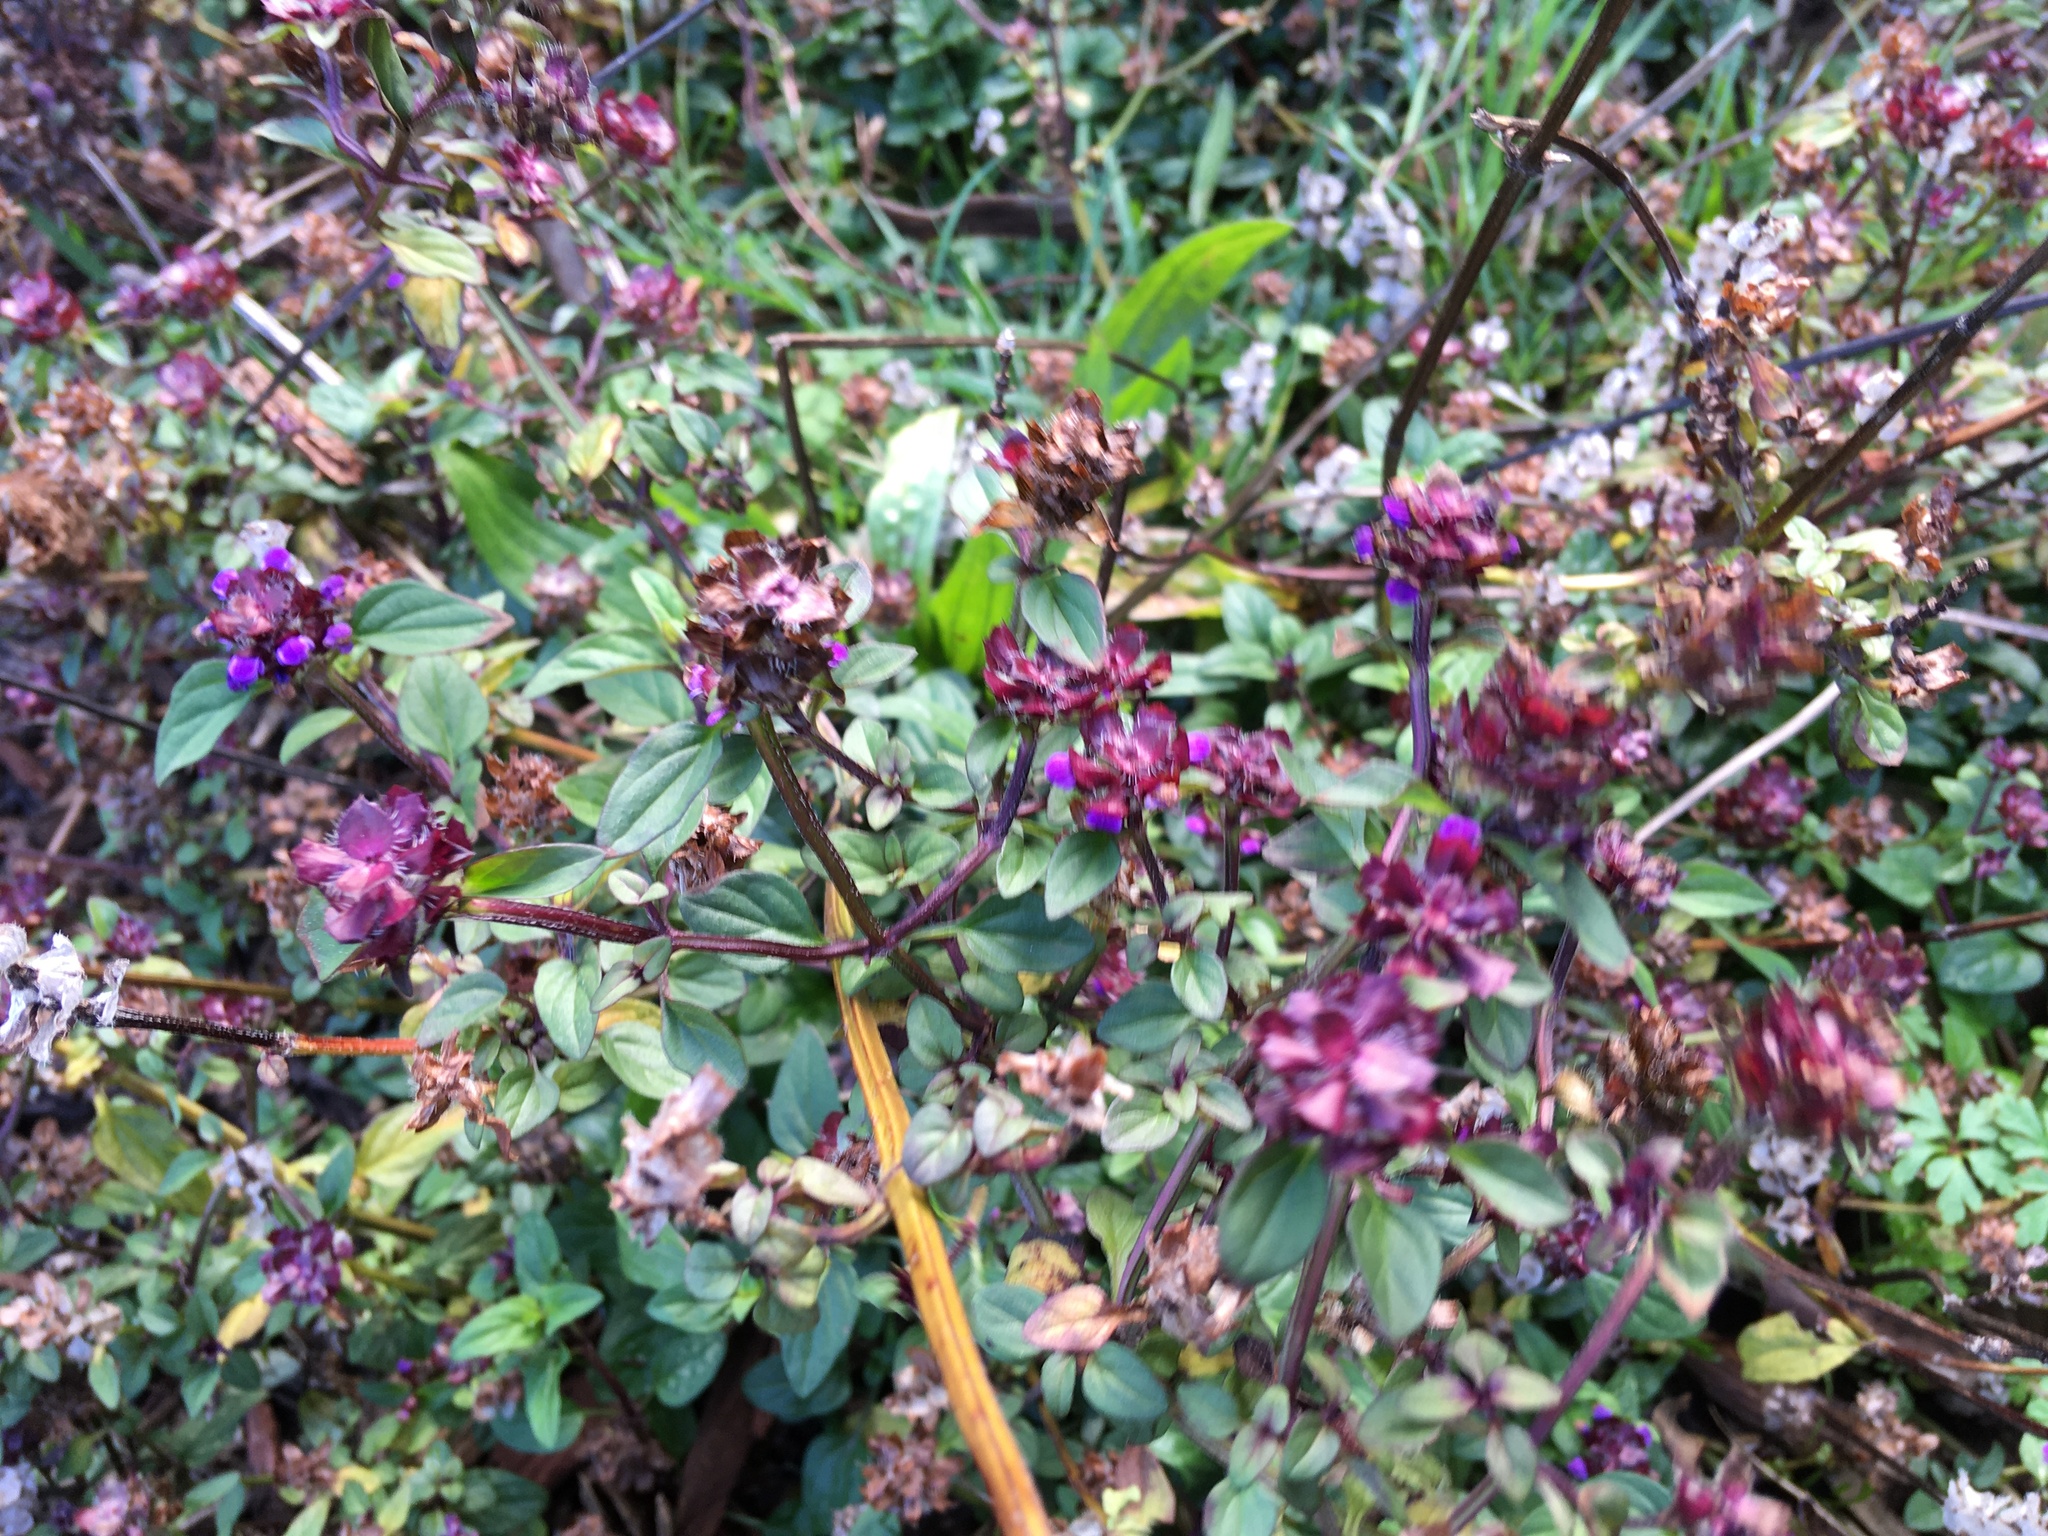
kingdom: Plantae
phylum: Tracheophyta
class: Magnoliopsida
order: Lamiales
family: Lamiaceae
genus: Prunella
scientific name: Prunella vulgaris
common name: Heal-all
